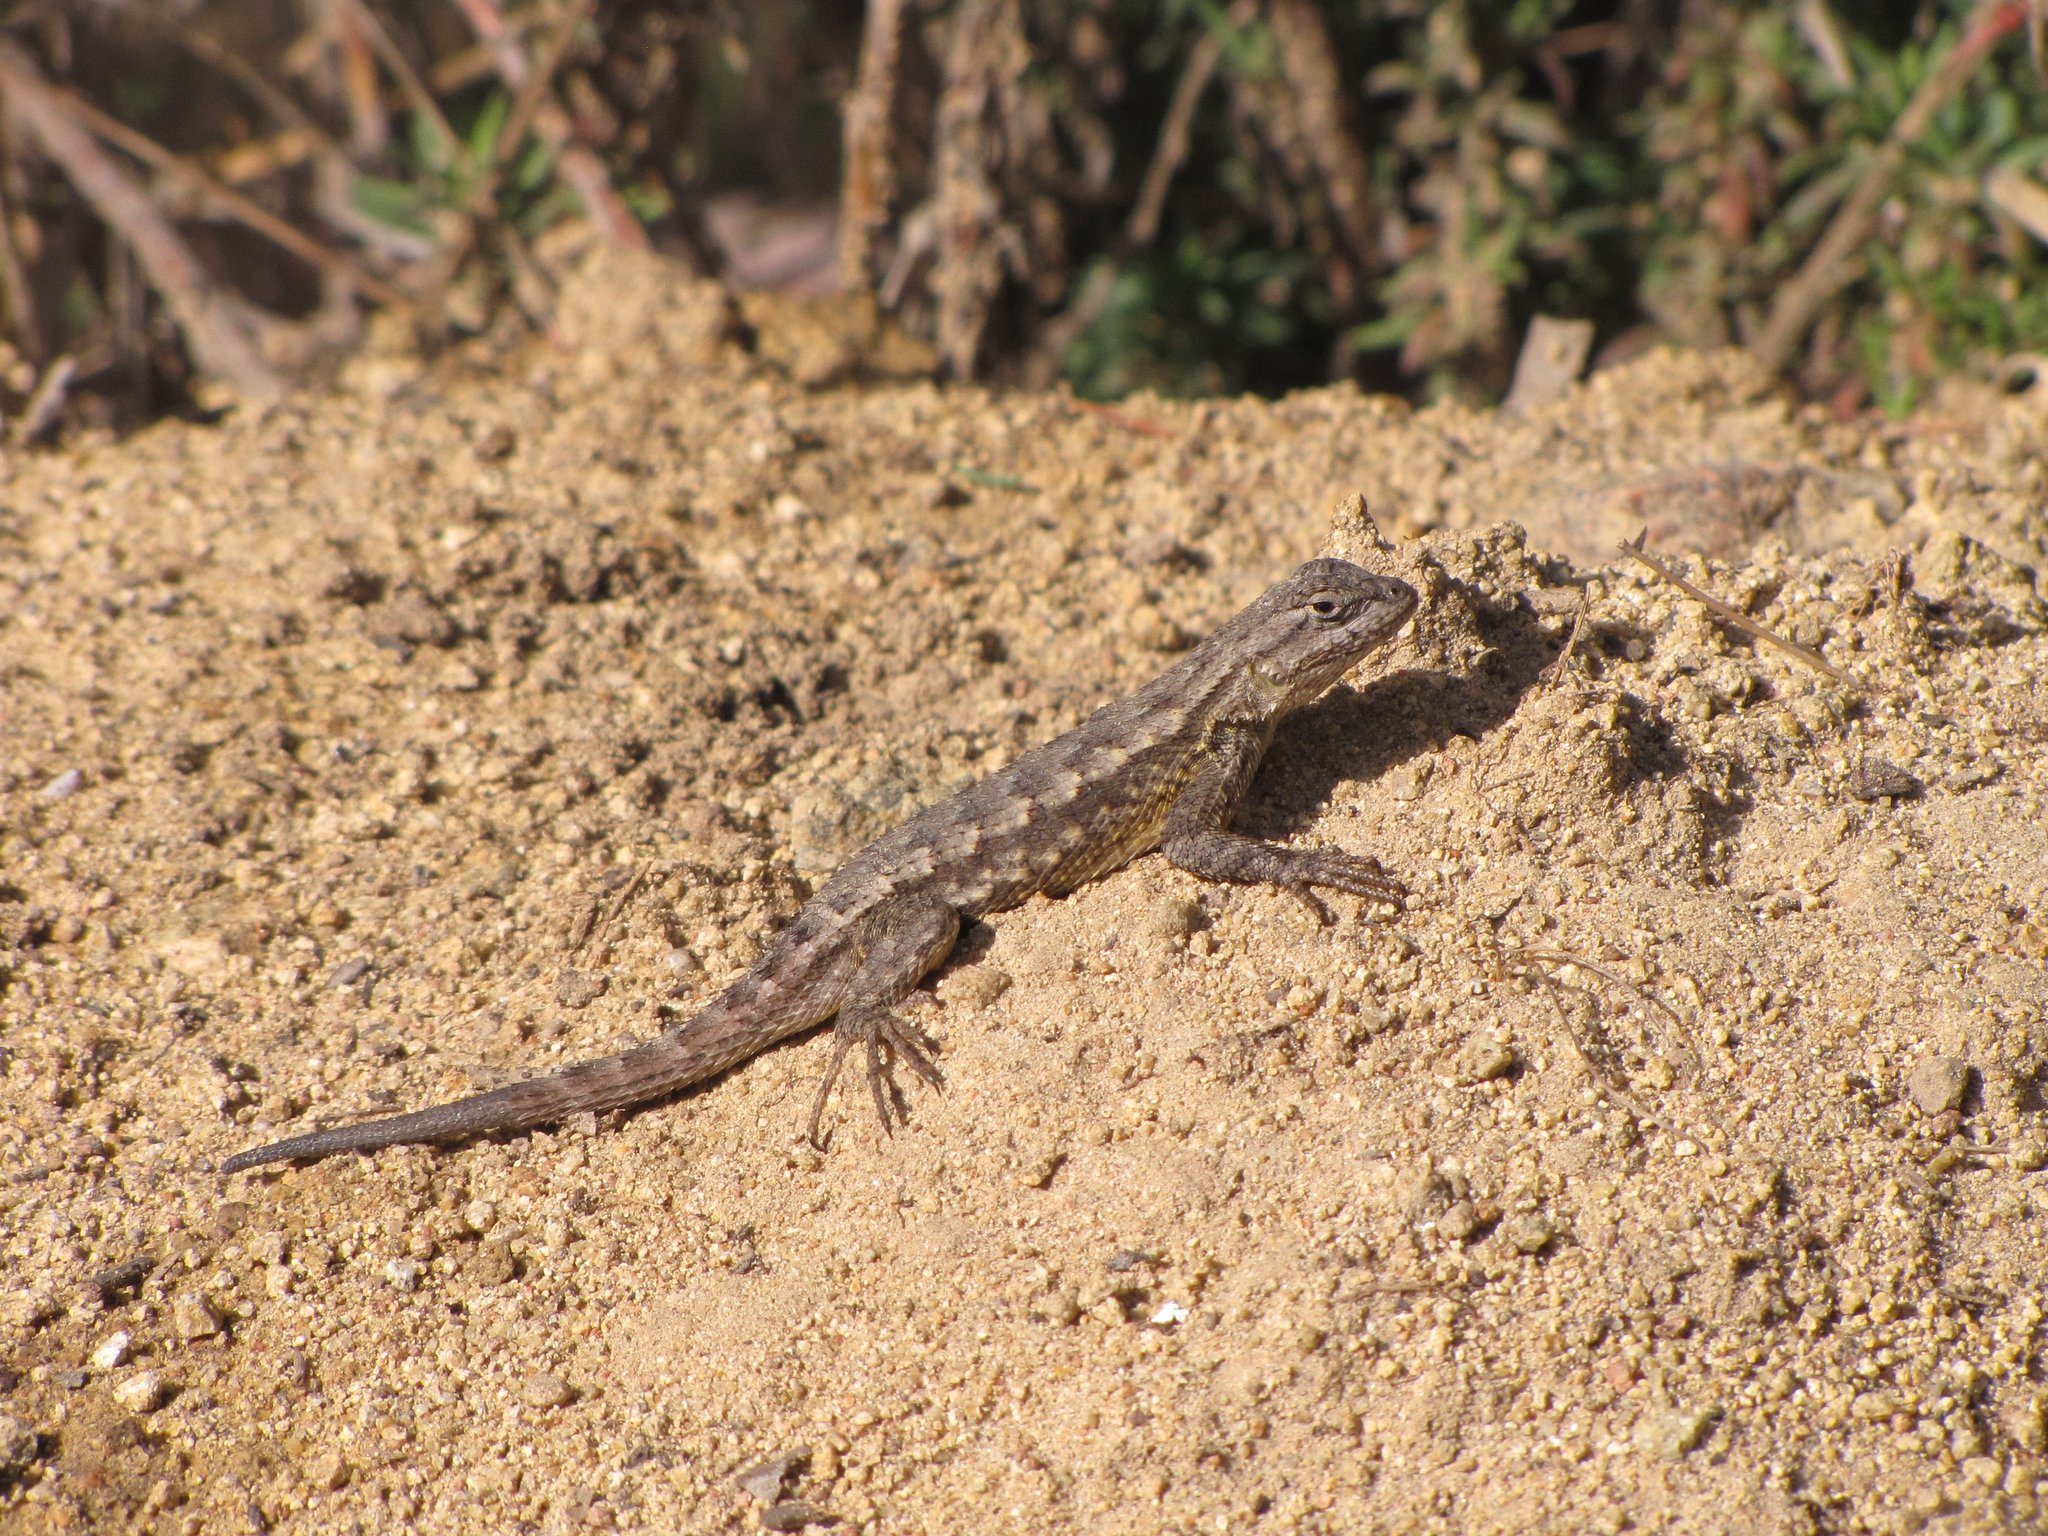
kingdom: Animalia
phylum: Chordata
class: Squamata
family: Phrynosomatidae
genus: Sceloporus
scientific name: Sceloporus occidentalis
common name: Western fence lizard
